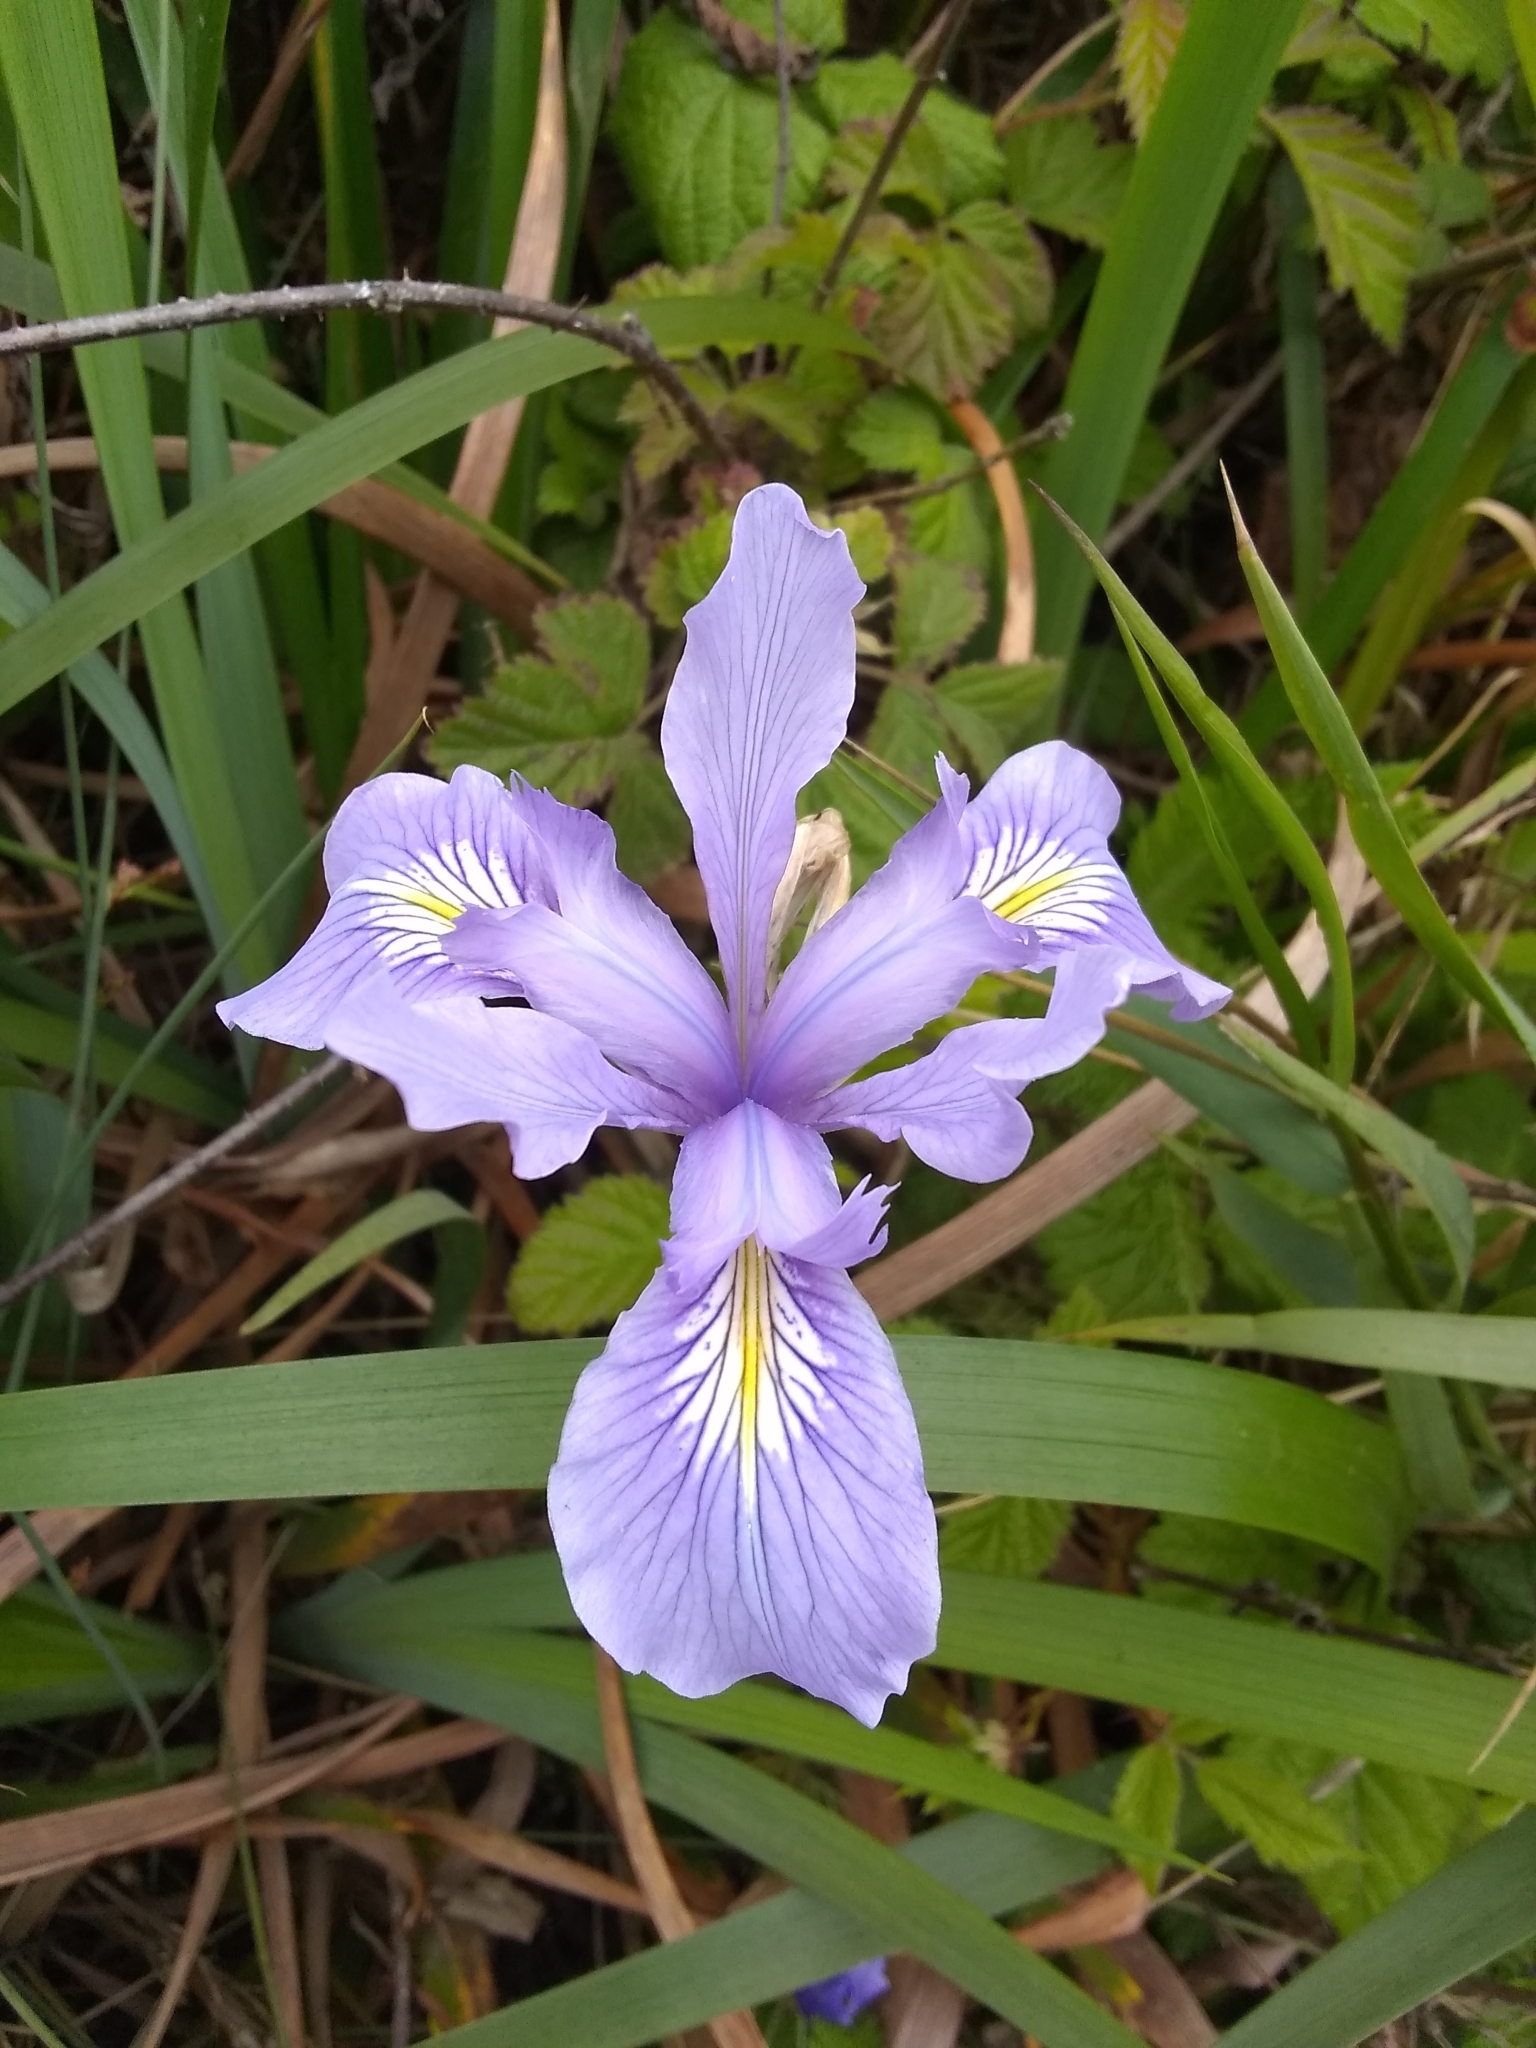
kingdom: Plantae
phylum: Tracheophyta
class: Liliopsida
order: Asparagales
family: Iridaceae
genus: Iris
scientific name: Iris douglasiana
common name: Marin iris
